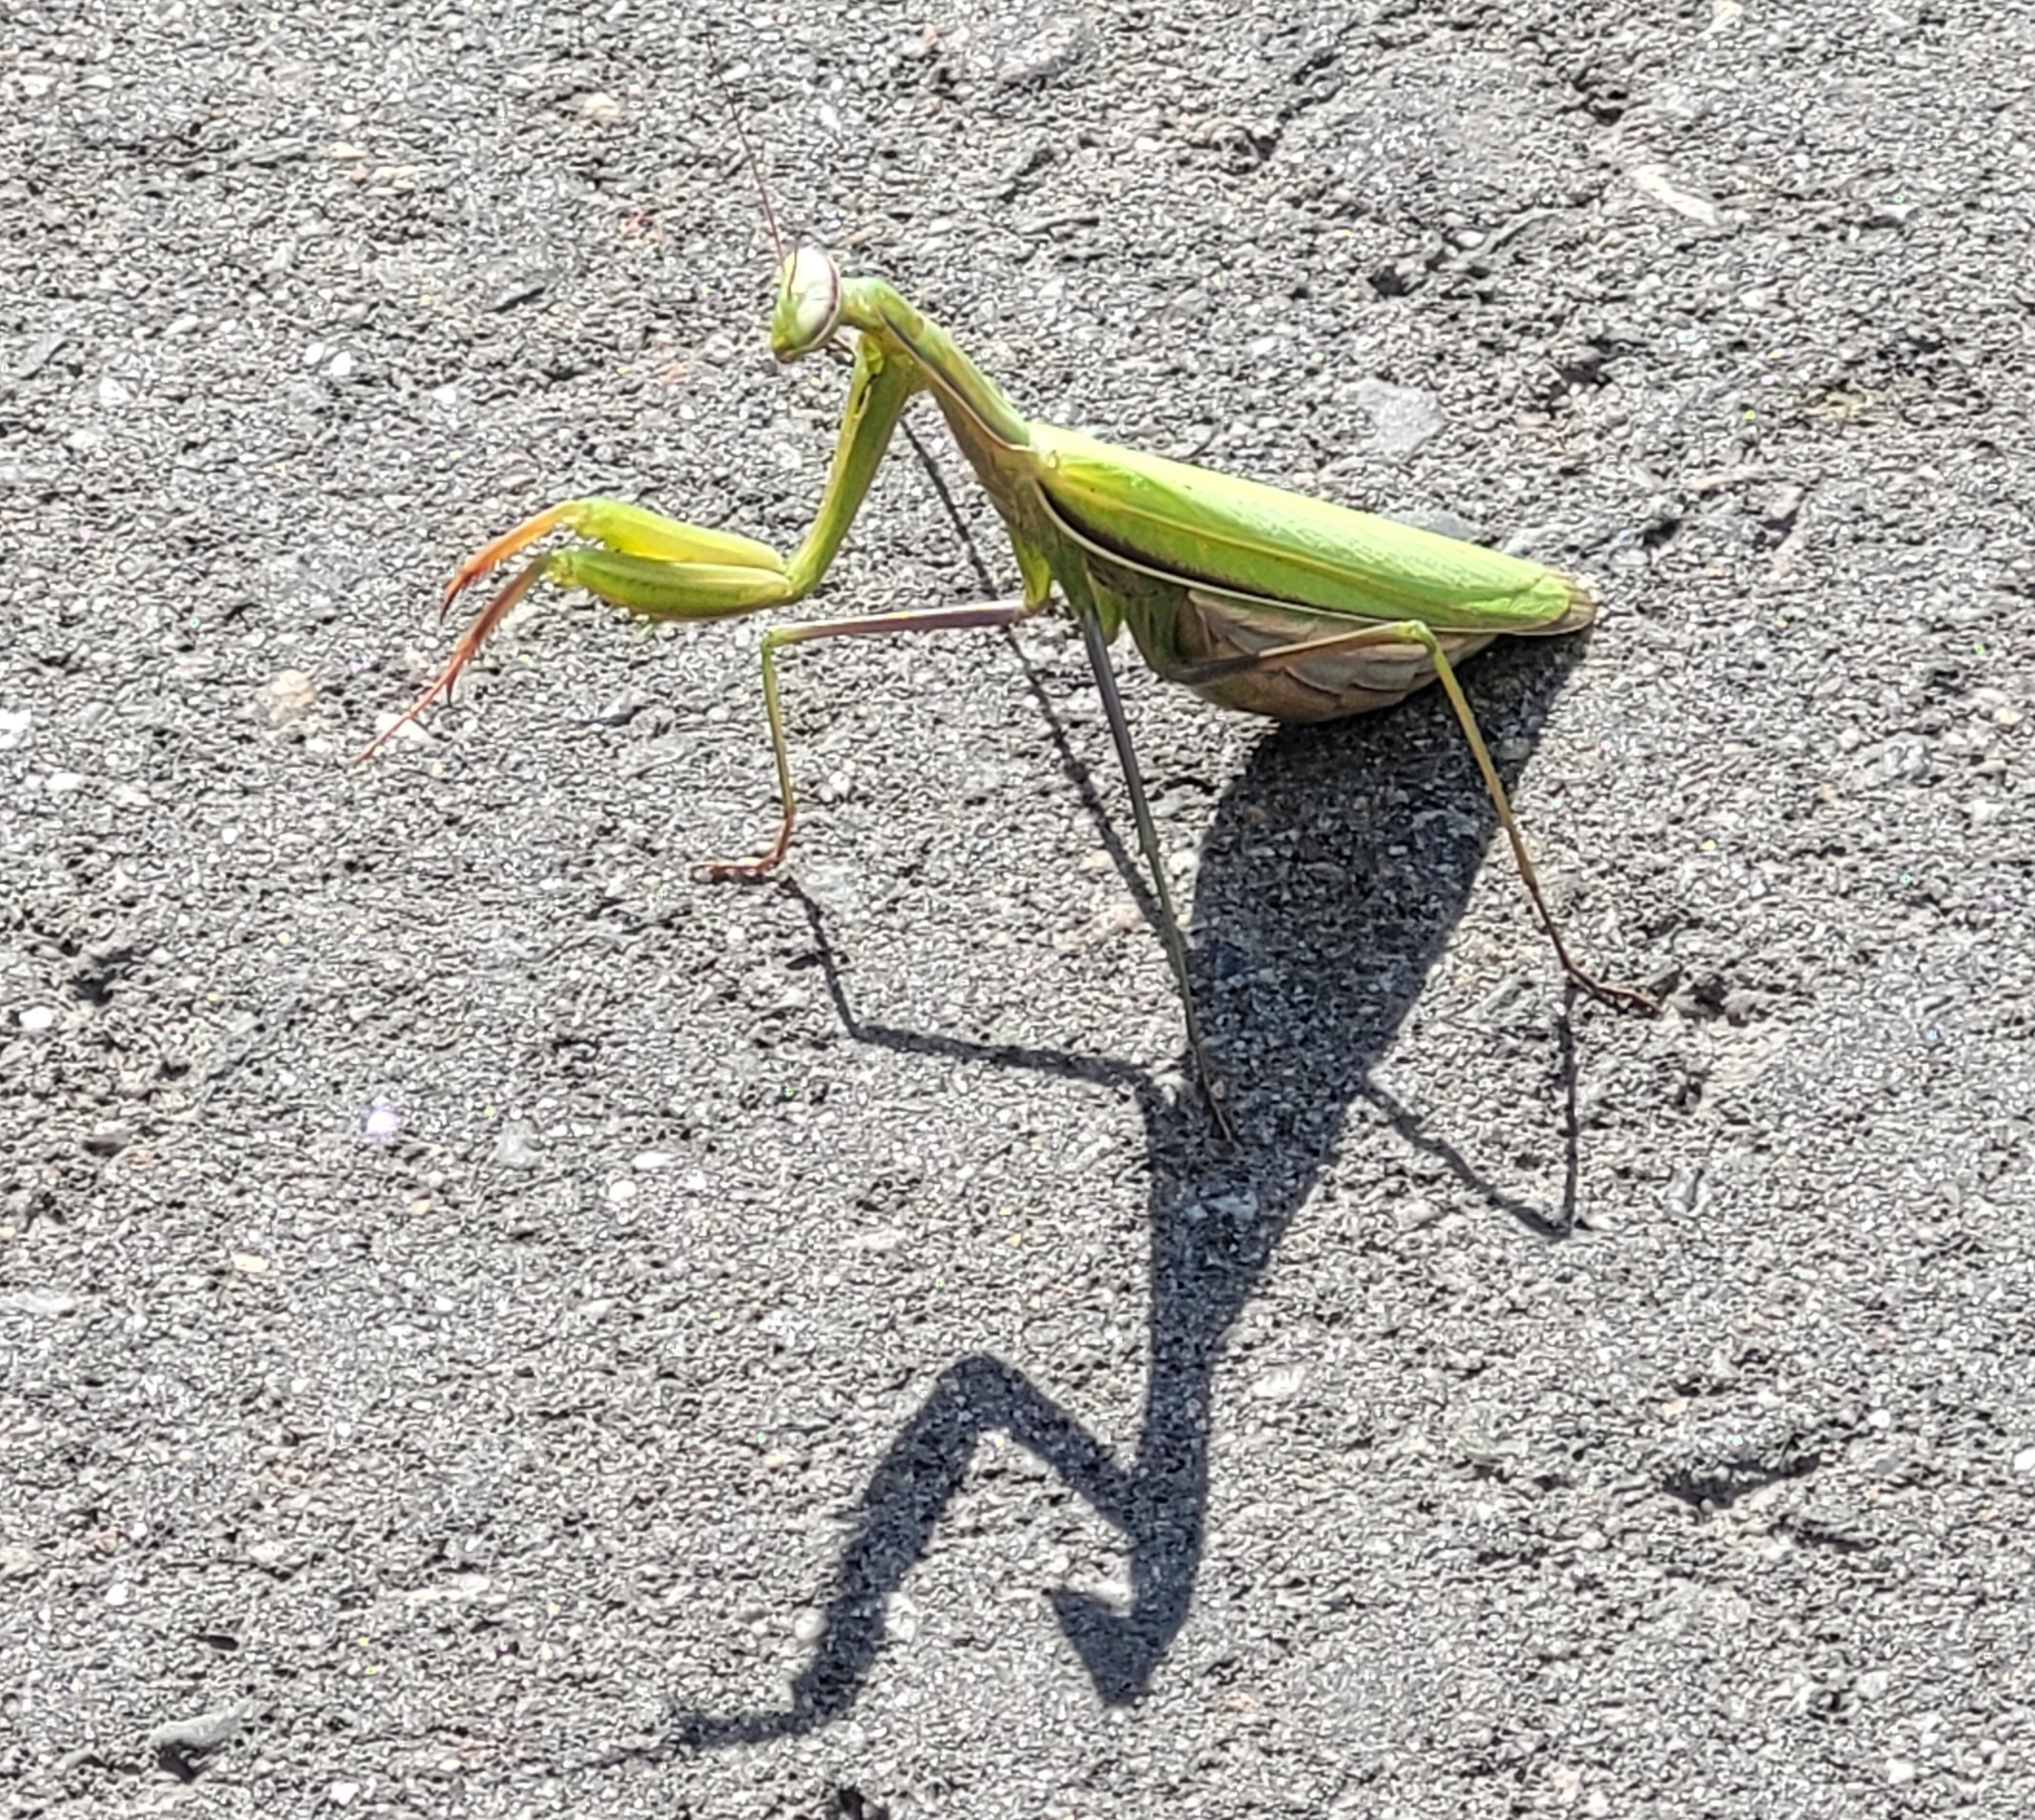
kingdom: Animalia
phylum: Arthropoda
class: Insecta
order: Mantodea
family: Mantidae
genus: Mantis
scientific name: Mantis religiosa
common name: Praying mantis
